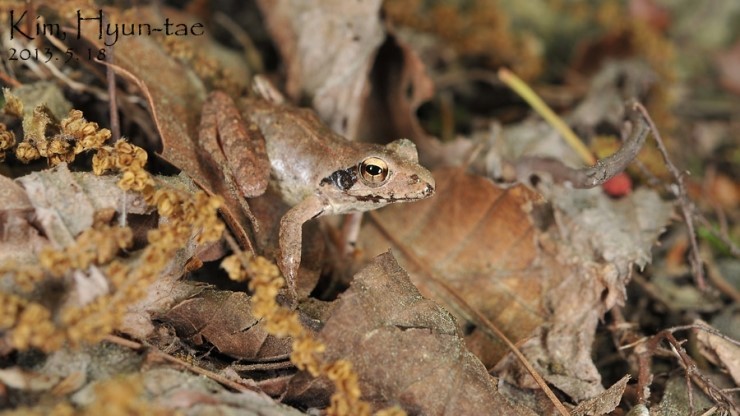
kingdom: Animalia
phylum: Chordata
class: Amphibia
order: Anura
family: Ranidae
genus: Rana
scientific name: Rana uenoi
